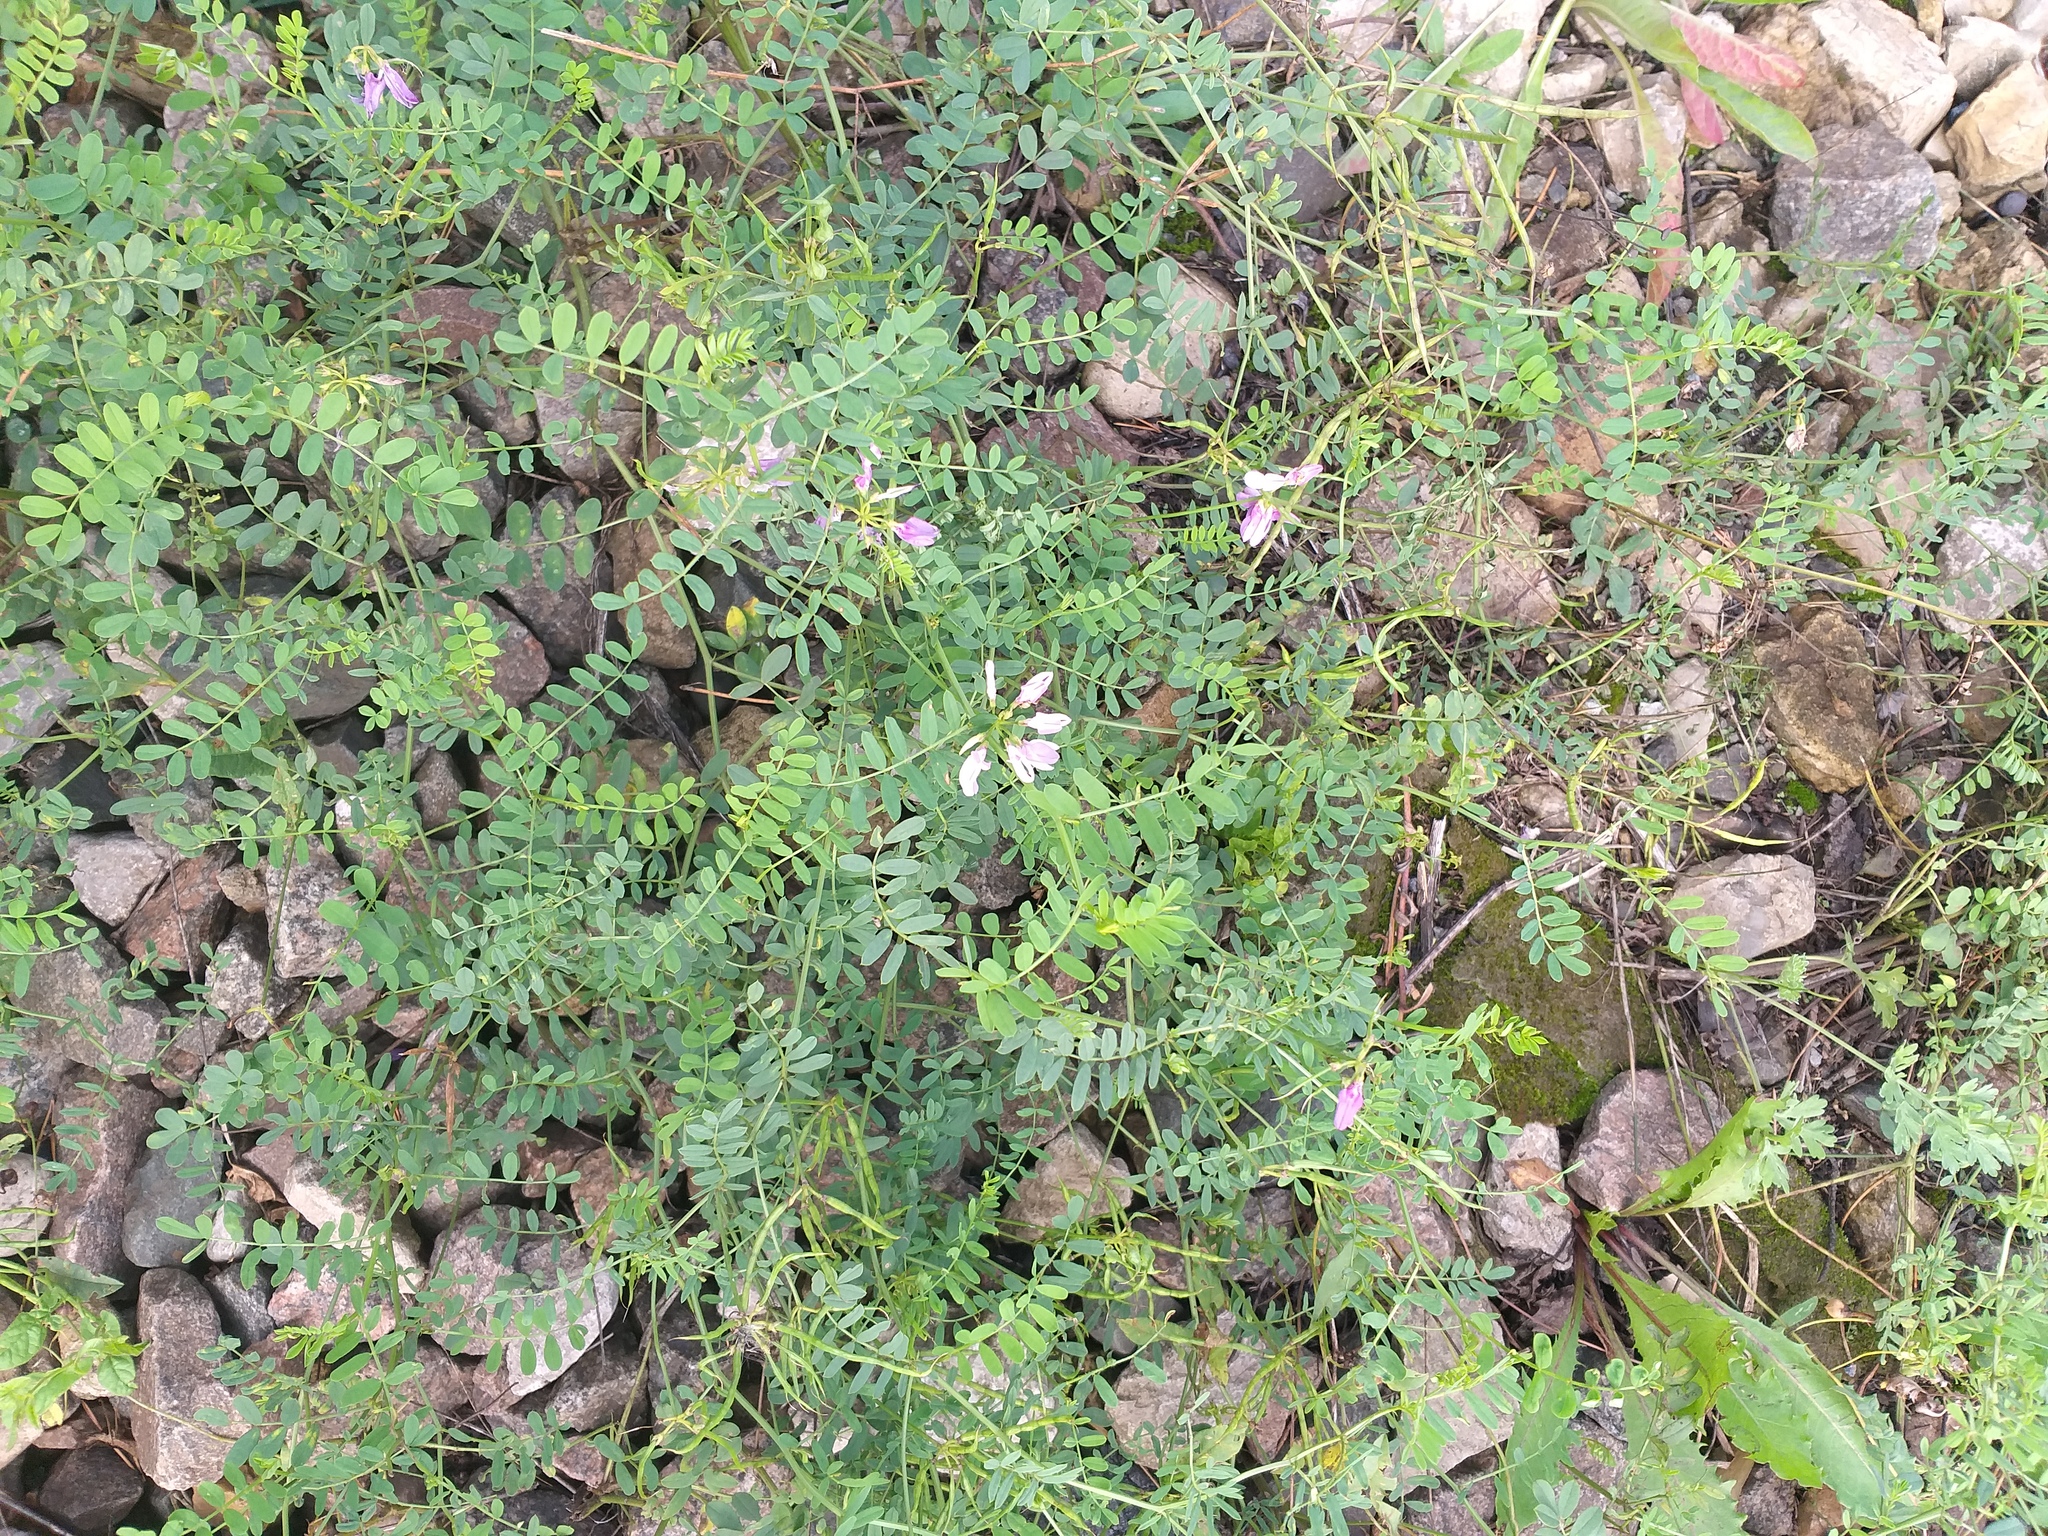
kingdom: Plantae
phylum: Tracheophyta
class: Magnoliopsida
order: Fabales
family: Fabaceae
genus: Coronilla
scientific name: Coronilla varia
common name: Crownvetch
